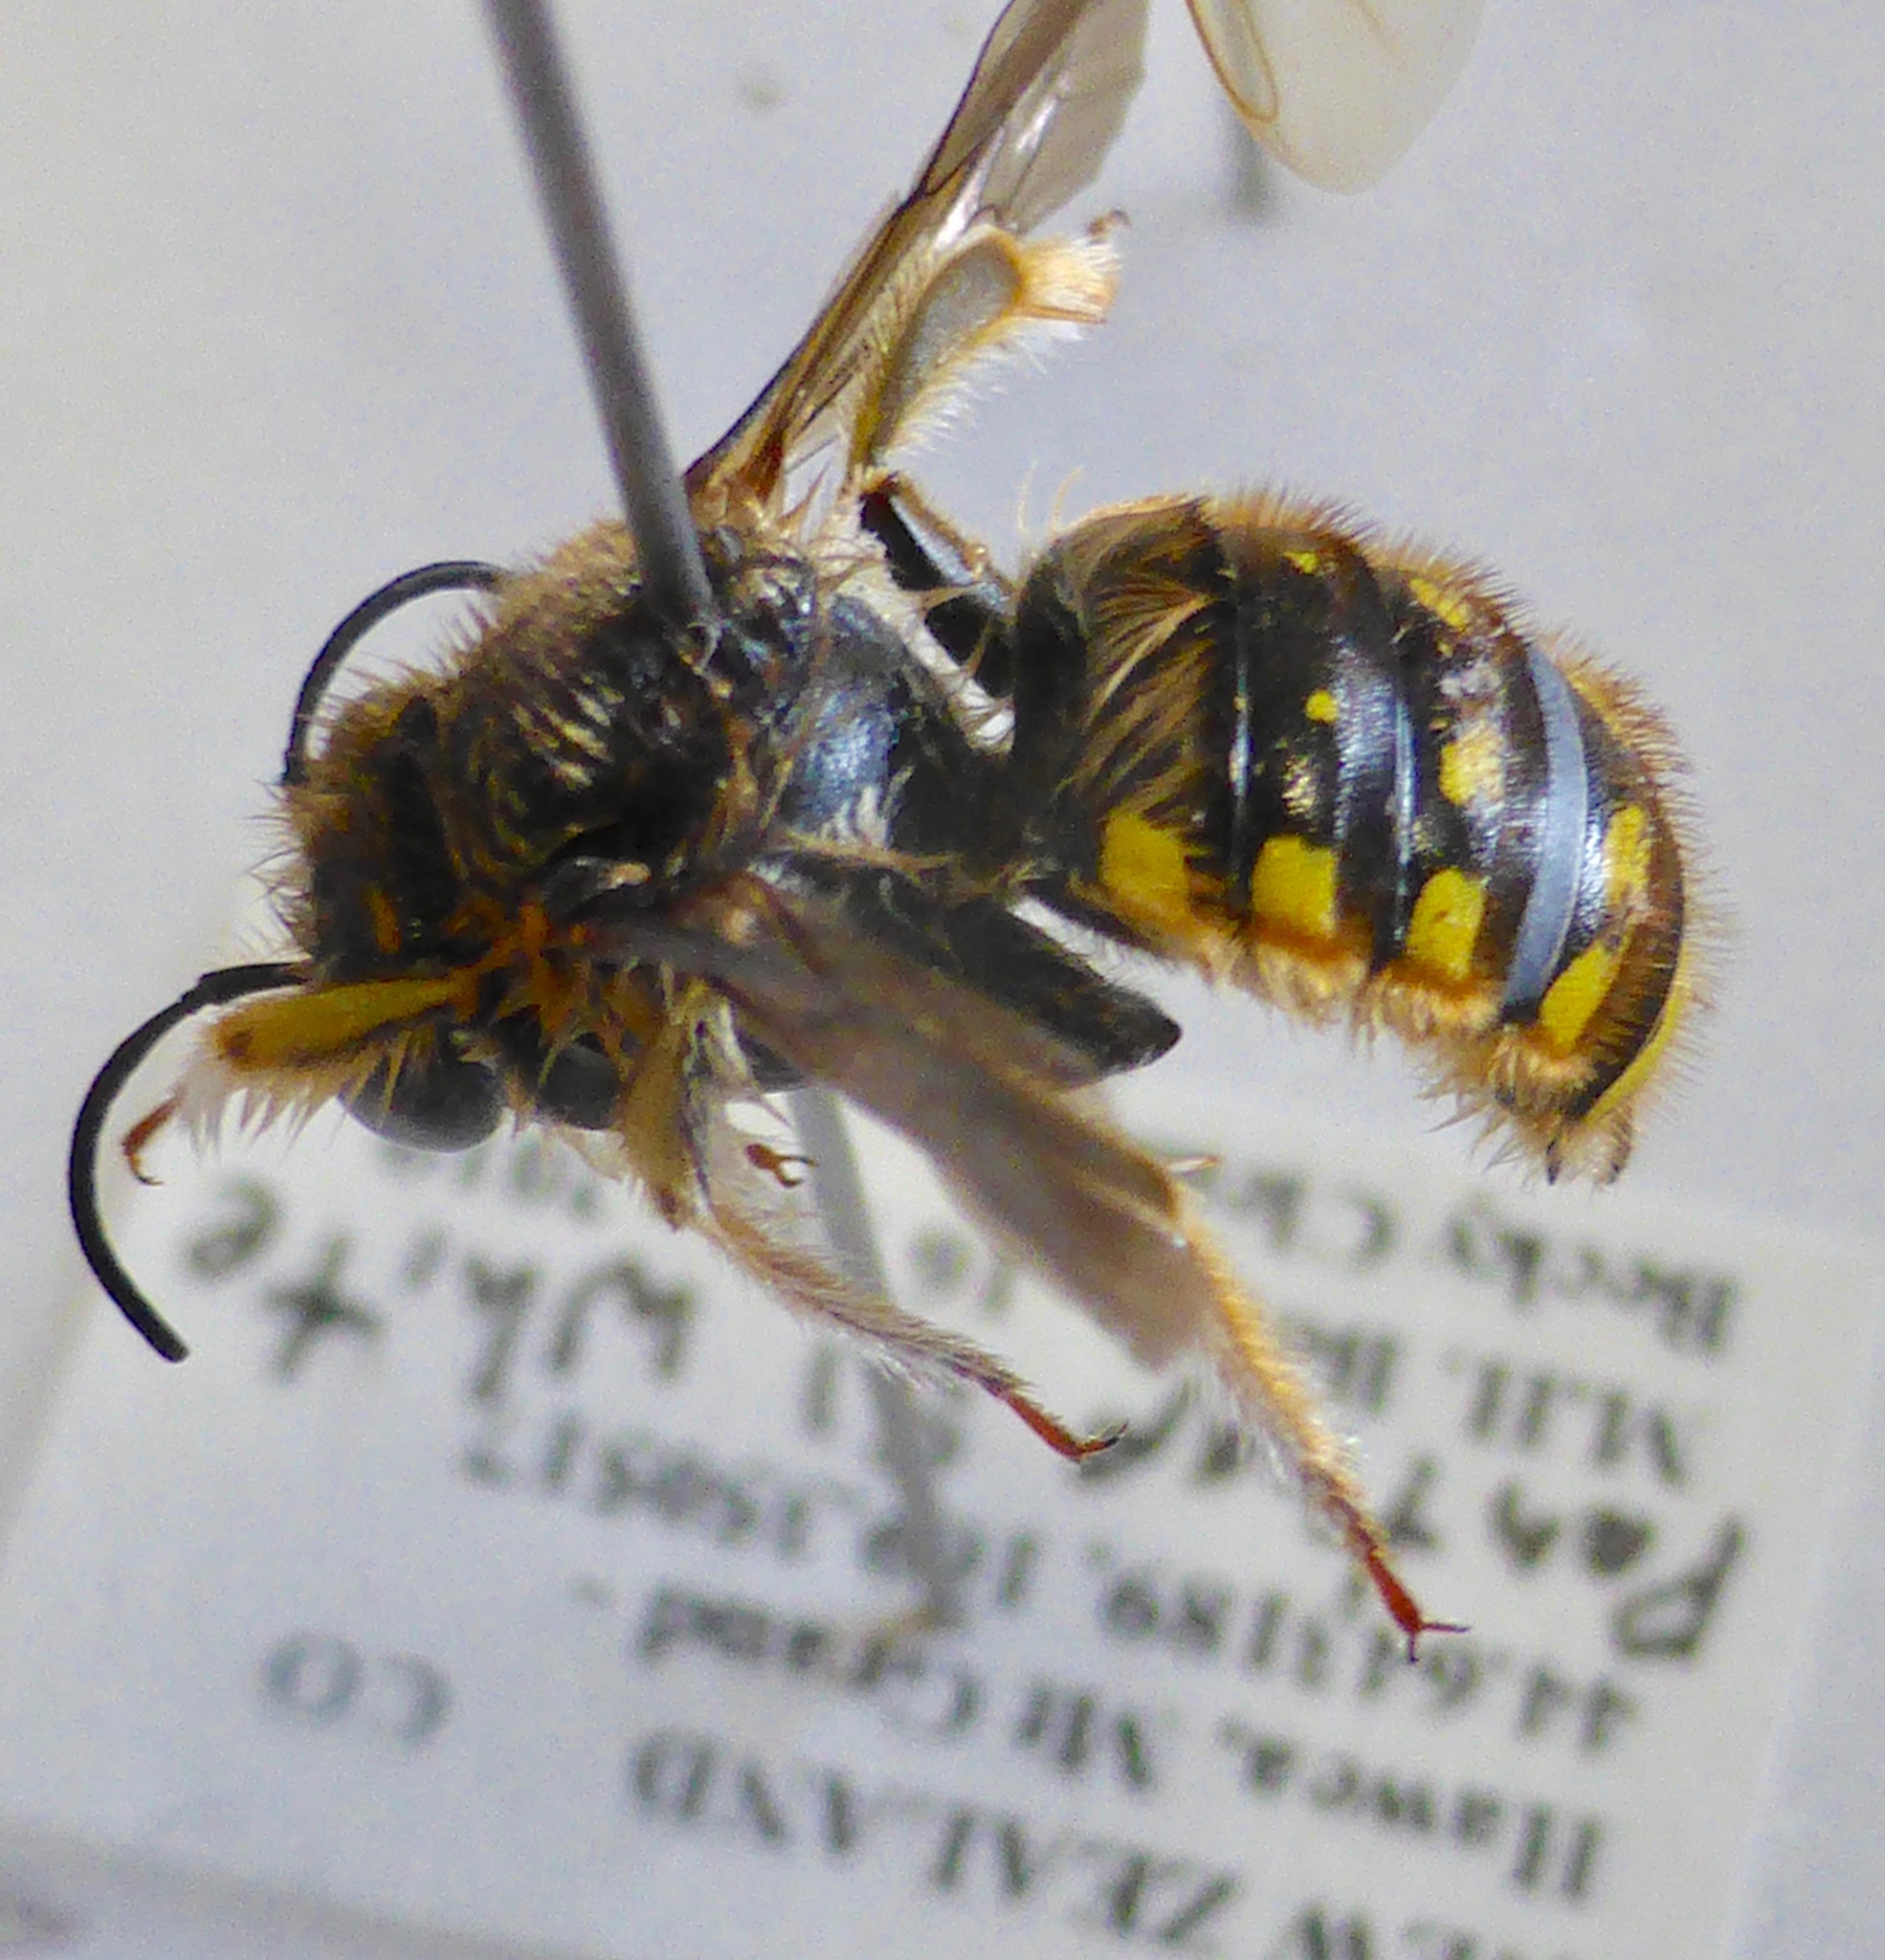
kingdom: Animalia
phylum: Arthropoda
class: Insecta
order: Hymenoptera
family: Megachilidae
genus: Anthidium
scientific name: Anthidium manicatum
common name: Wool carder bee
